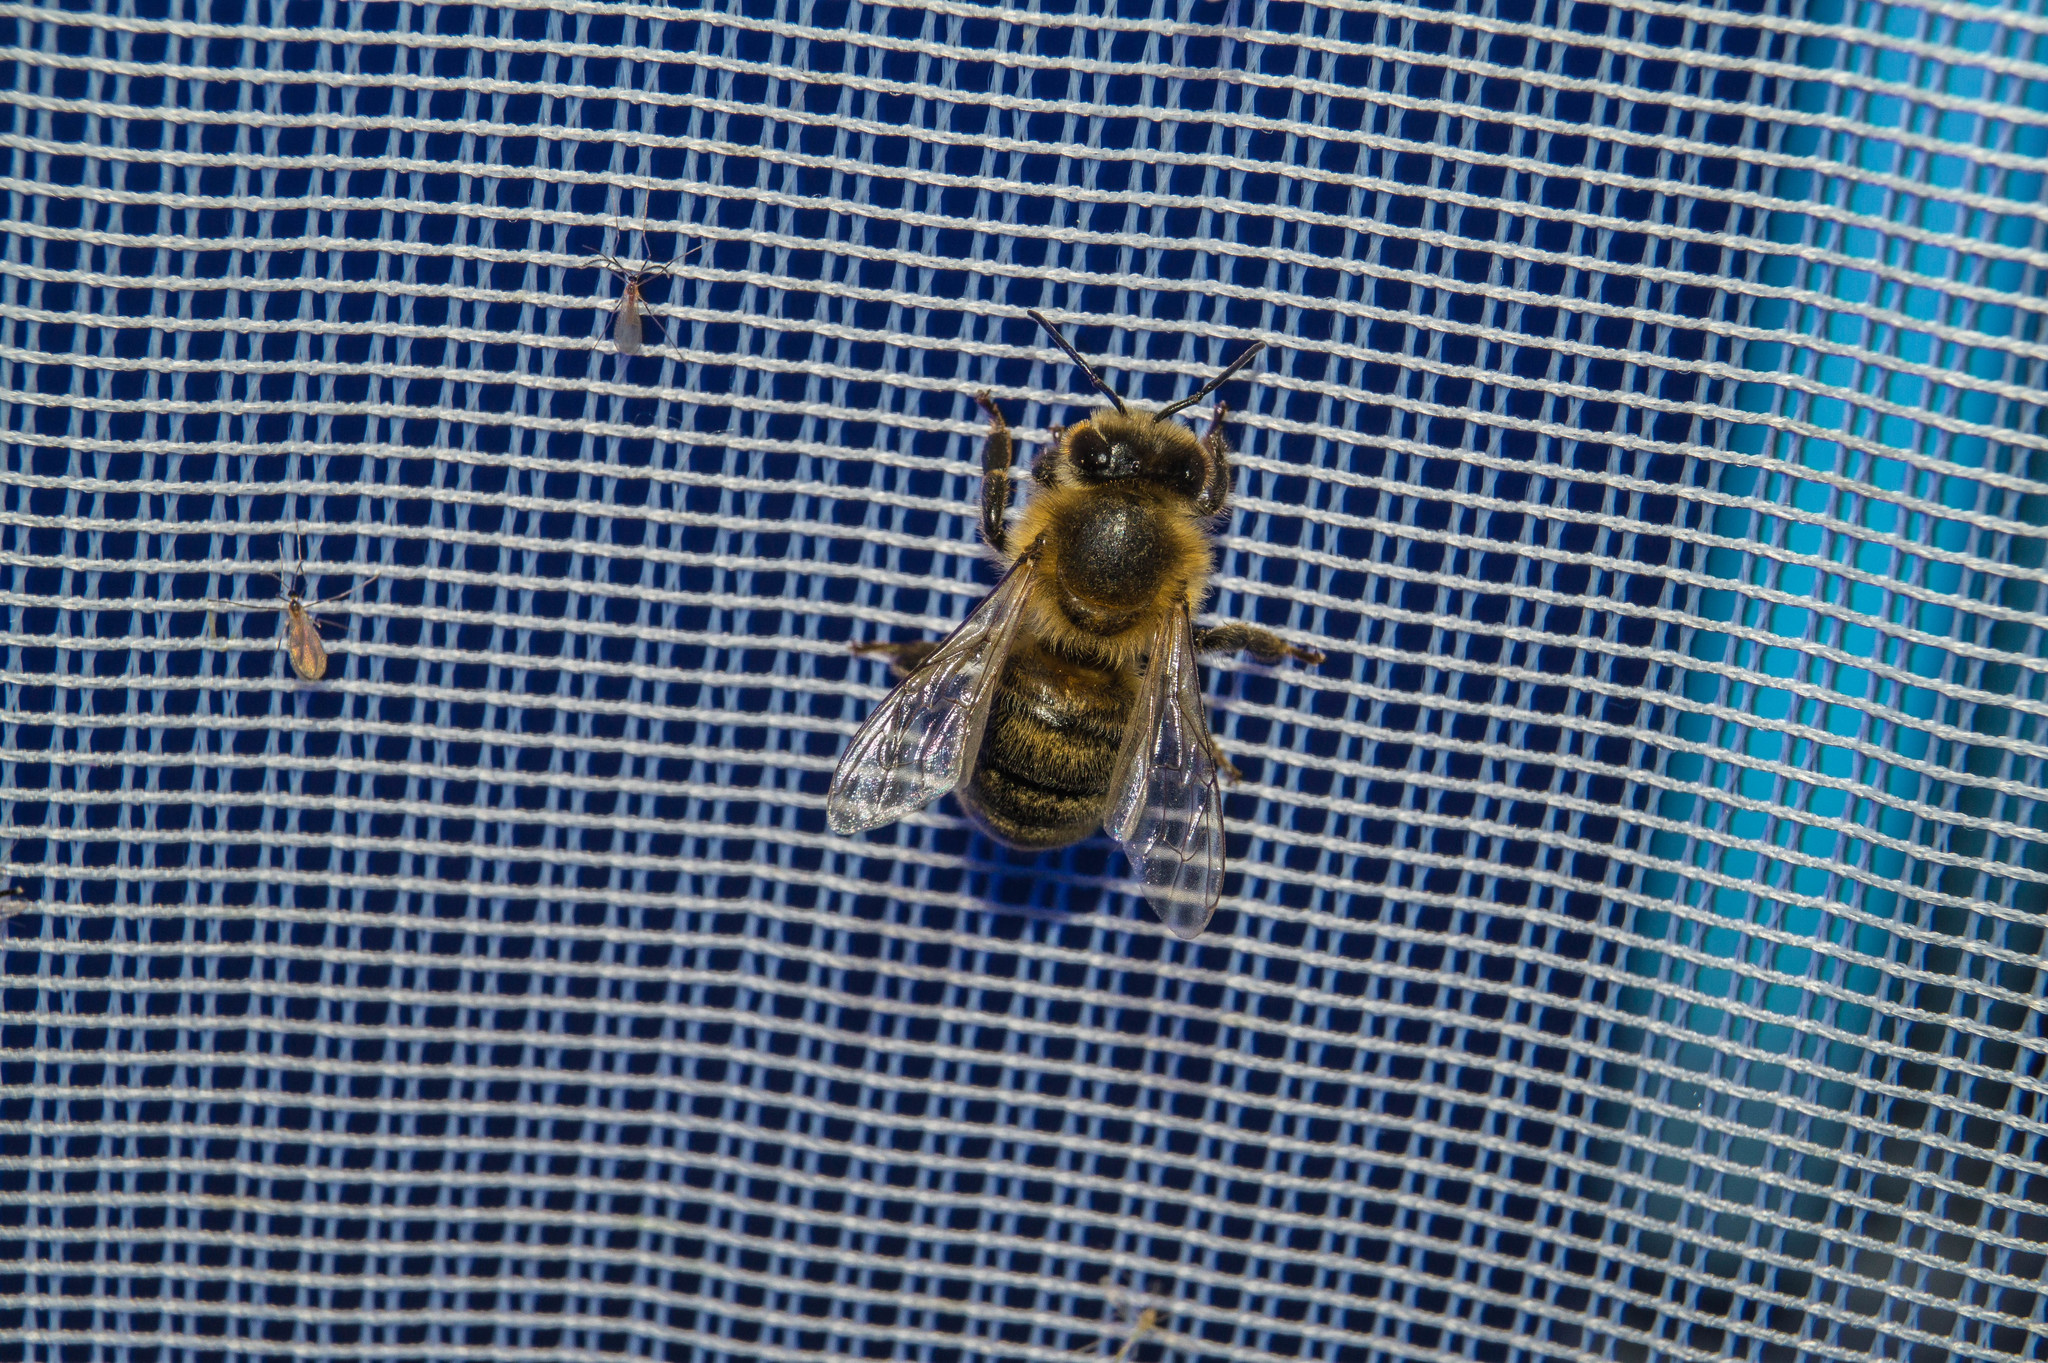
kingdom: Animalia
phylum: Arthropoda
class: Insecta
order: Hymenoptera
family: Apidae
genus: Apis
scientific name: Apis mellifera
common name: Honey bee
